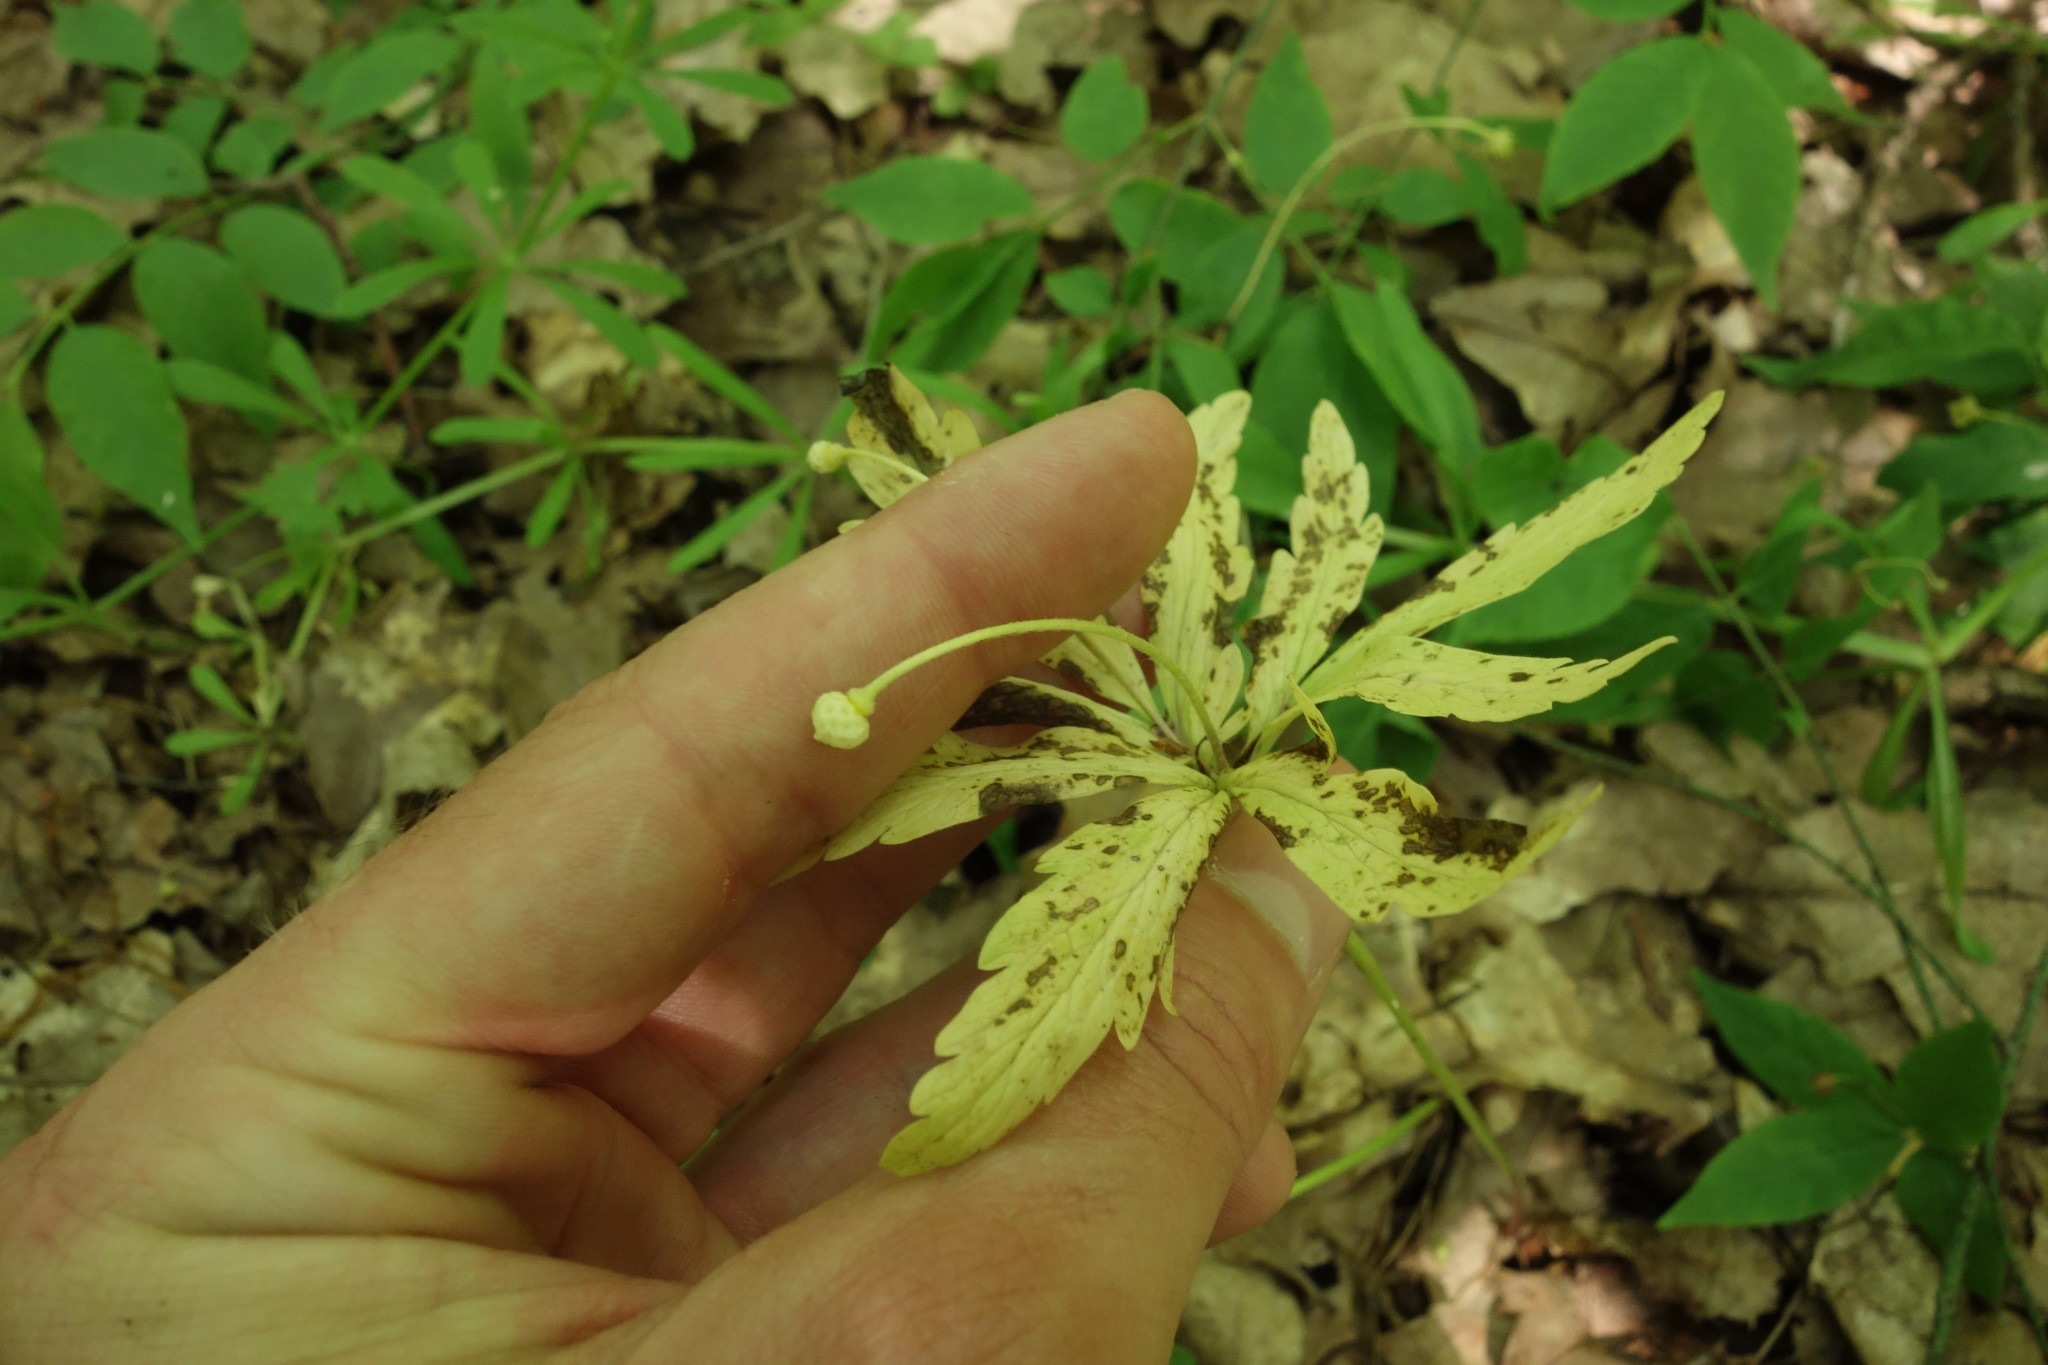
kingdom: Plantae
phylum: Tracheophyta
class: Magnoliopsida
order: Ranunculales
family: Ranunculaceae
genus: Anemone
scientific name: Anemone ranunculoides
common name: Yellow anemone
